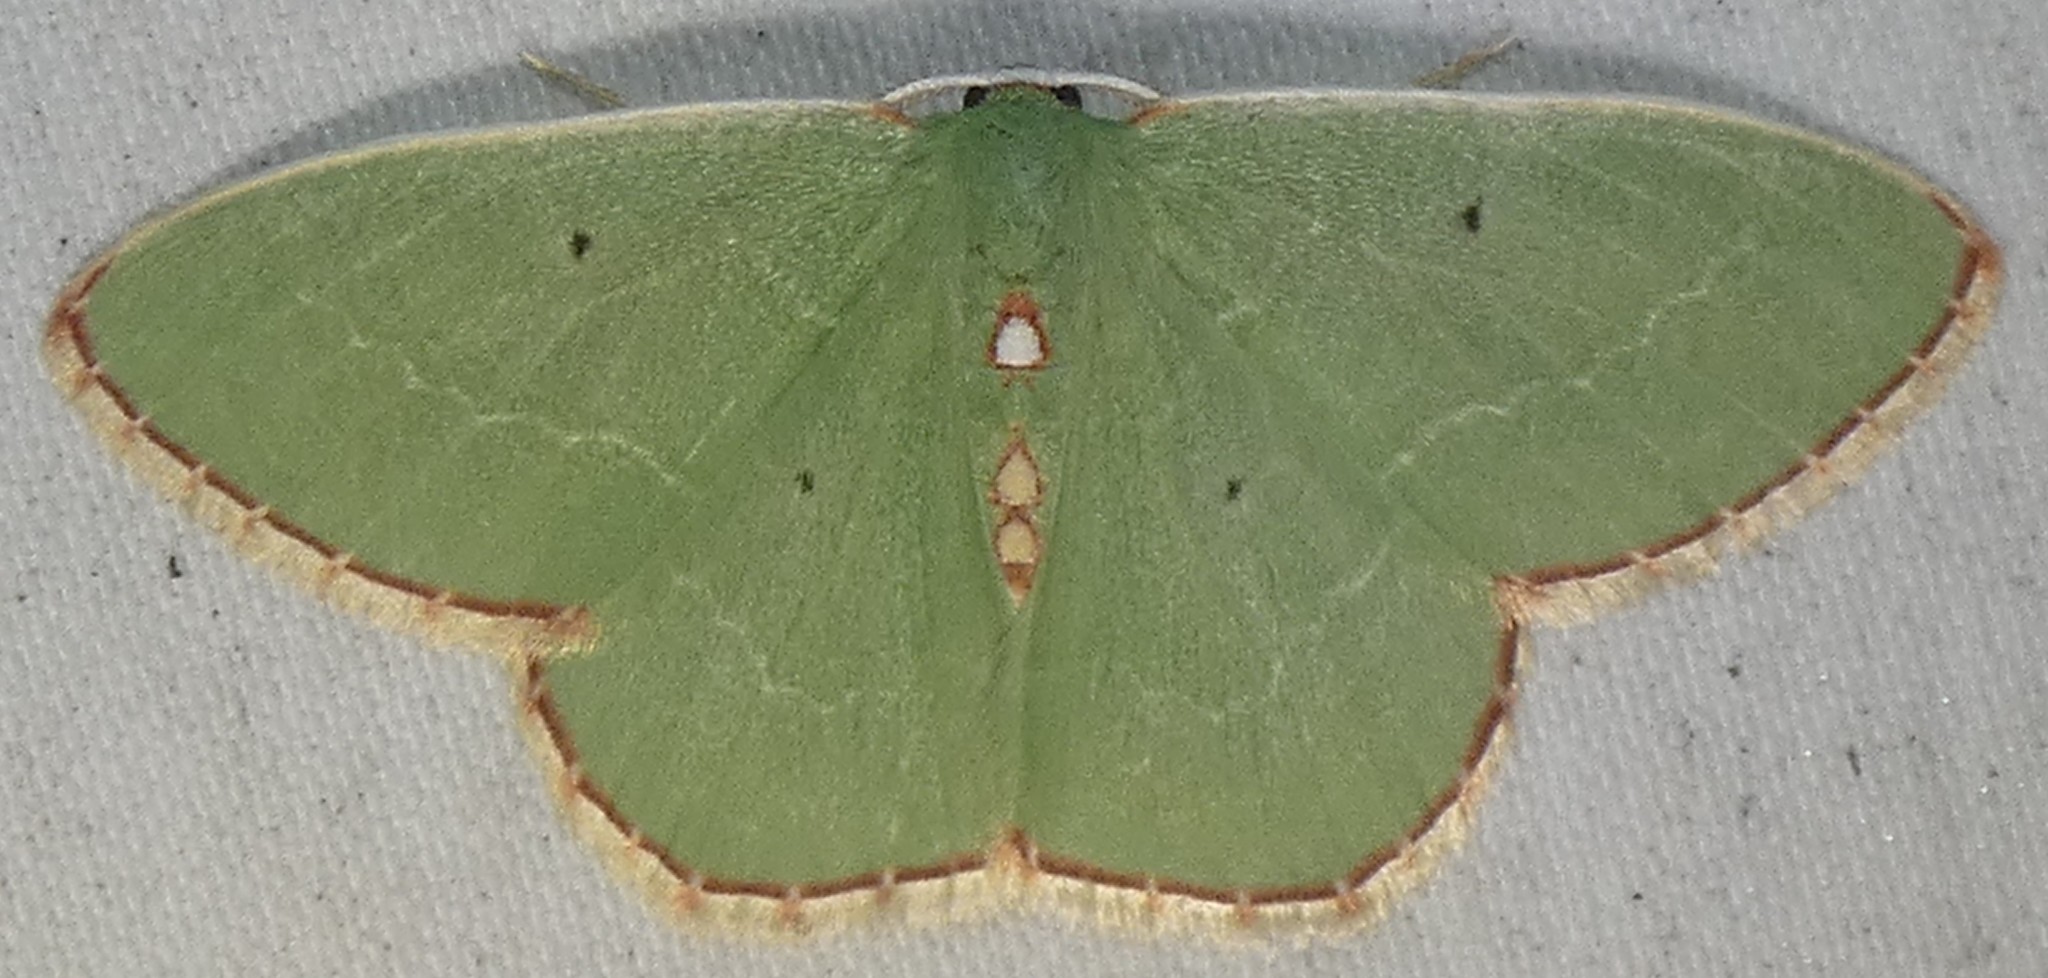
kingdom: Animalia
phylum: Arthropoda
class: Insecta
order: Lepidoptera
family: Geometridae
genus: Nemoria
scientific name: Nemoria lixaria
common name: Red-bordered emerald
